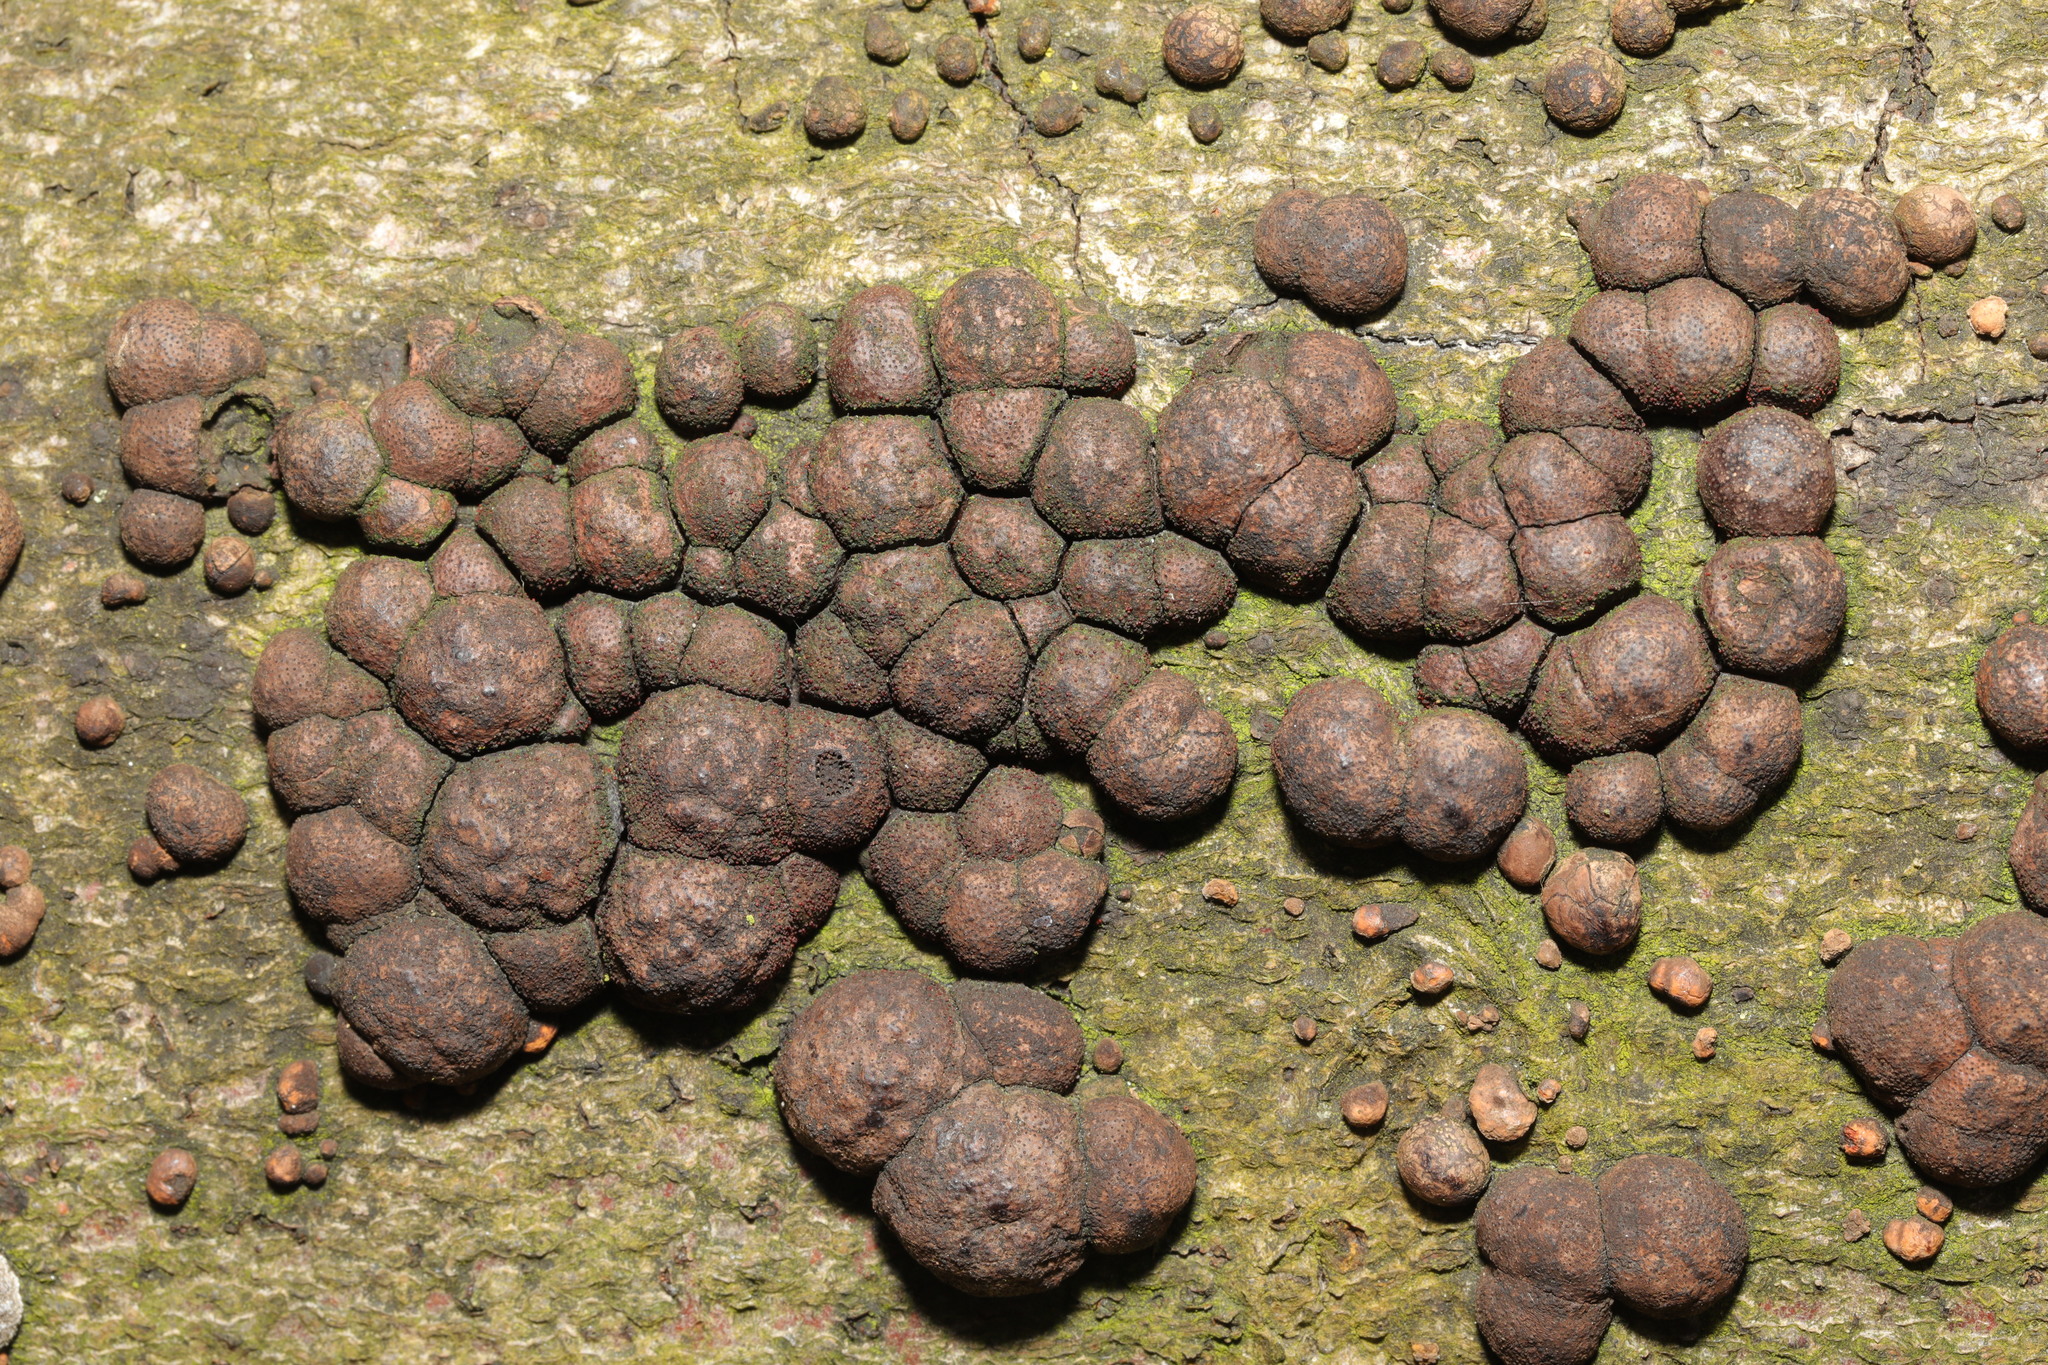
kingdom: Fungi
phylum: Ascomycota
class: Sordariomycetes
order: Xylariales
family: Hypoxylaceae
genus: Hypoxylon
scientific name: Hypoxylon fragiforme
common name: Beech woodwart
